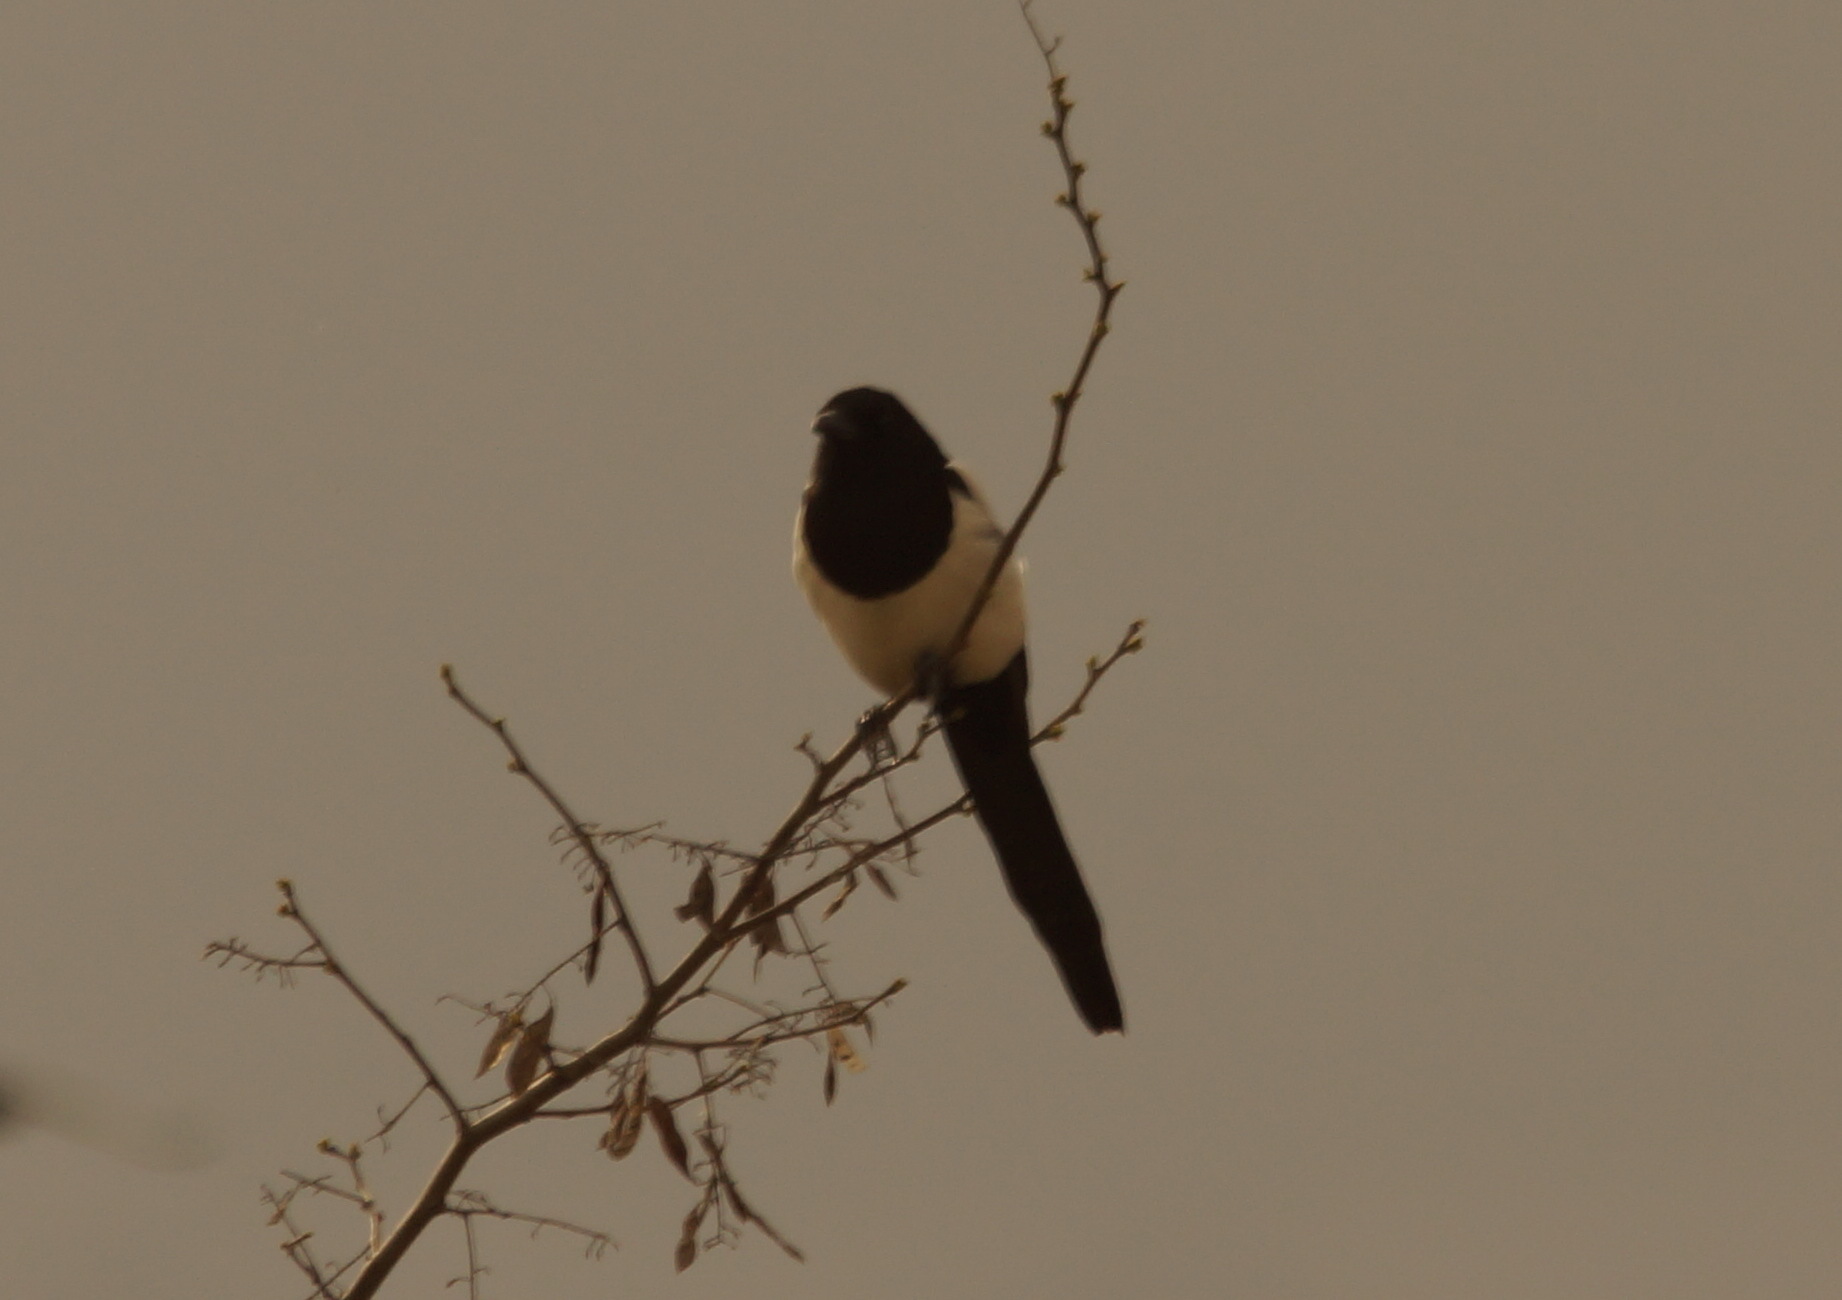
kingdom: Animalia
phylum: Chordata
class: Aves
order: Passeriformes
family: Corvidae
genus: Pica
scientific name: Pica pica
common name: Eurasian magpie
